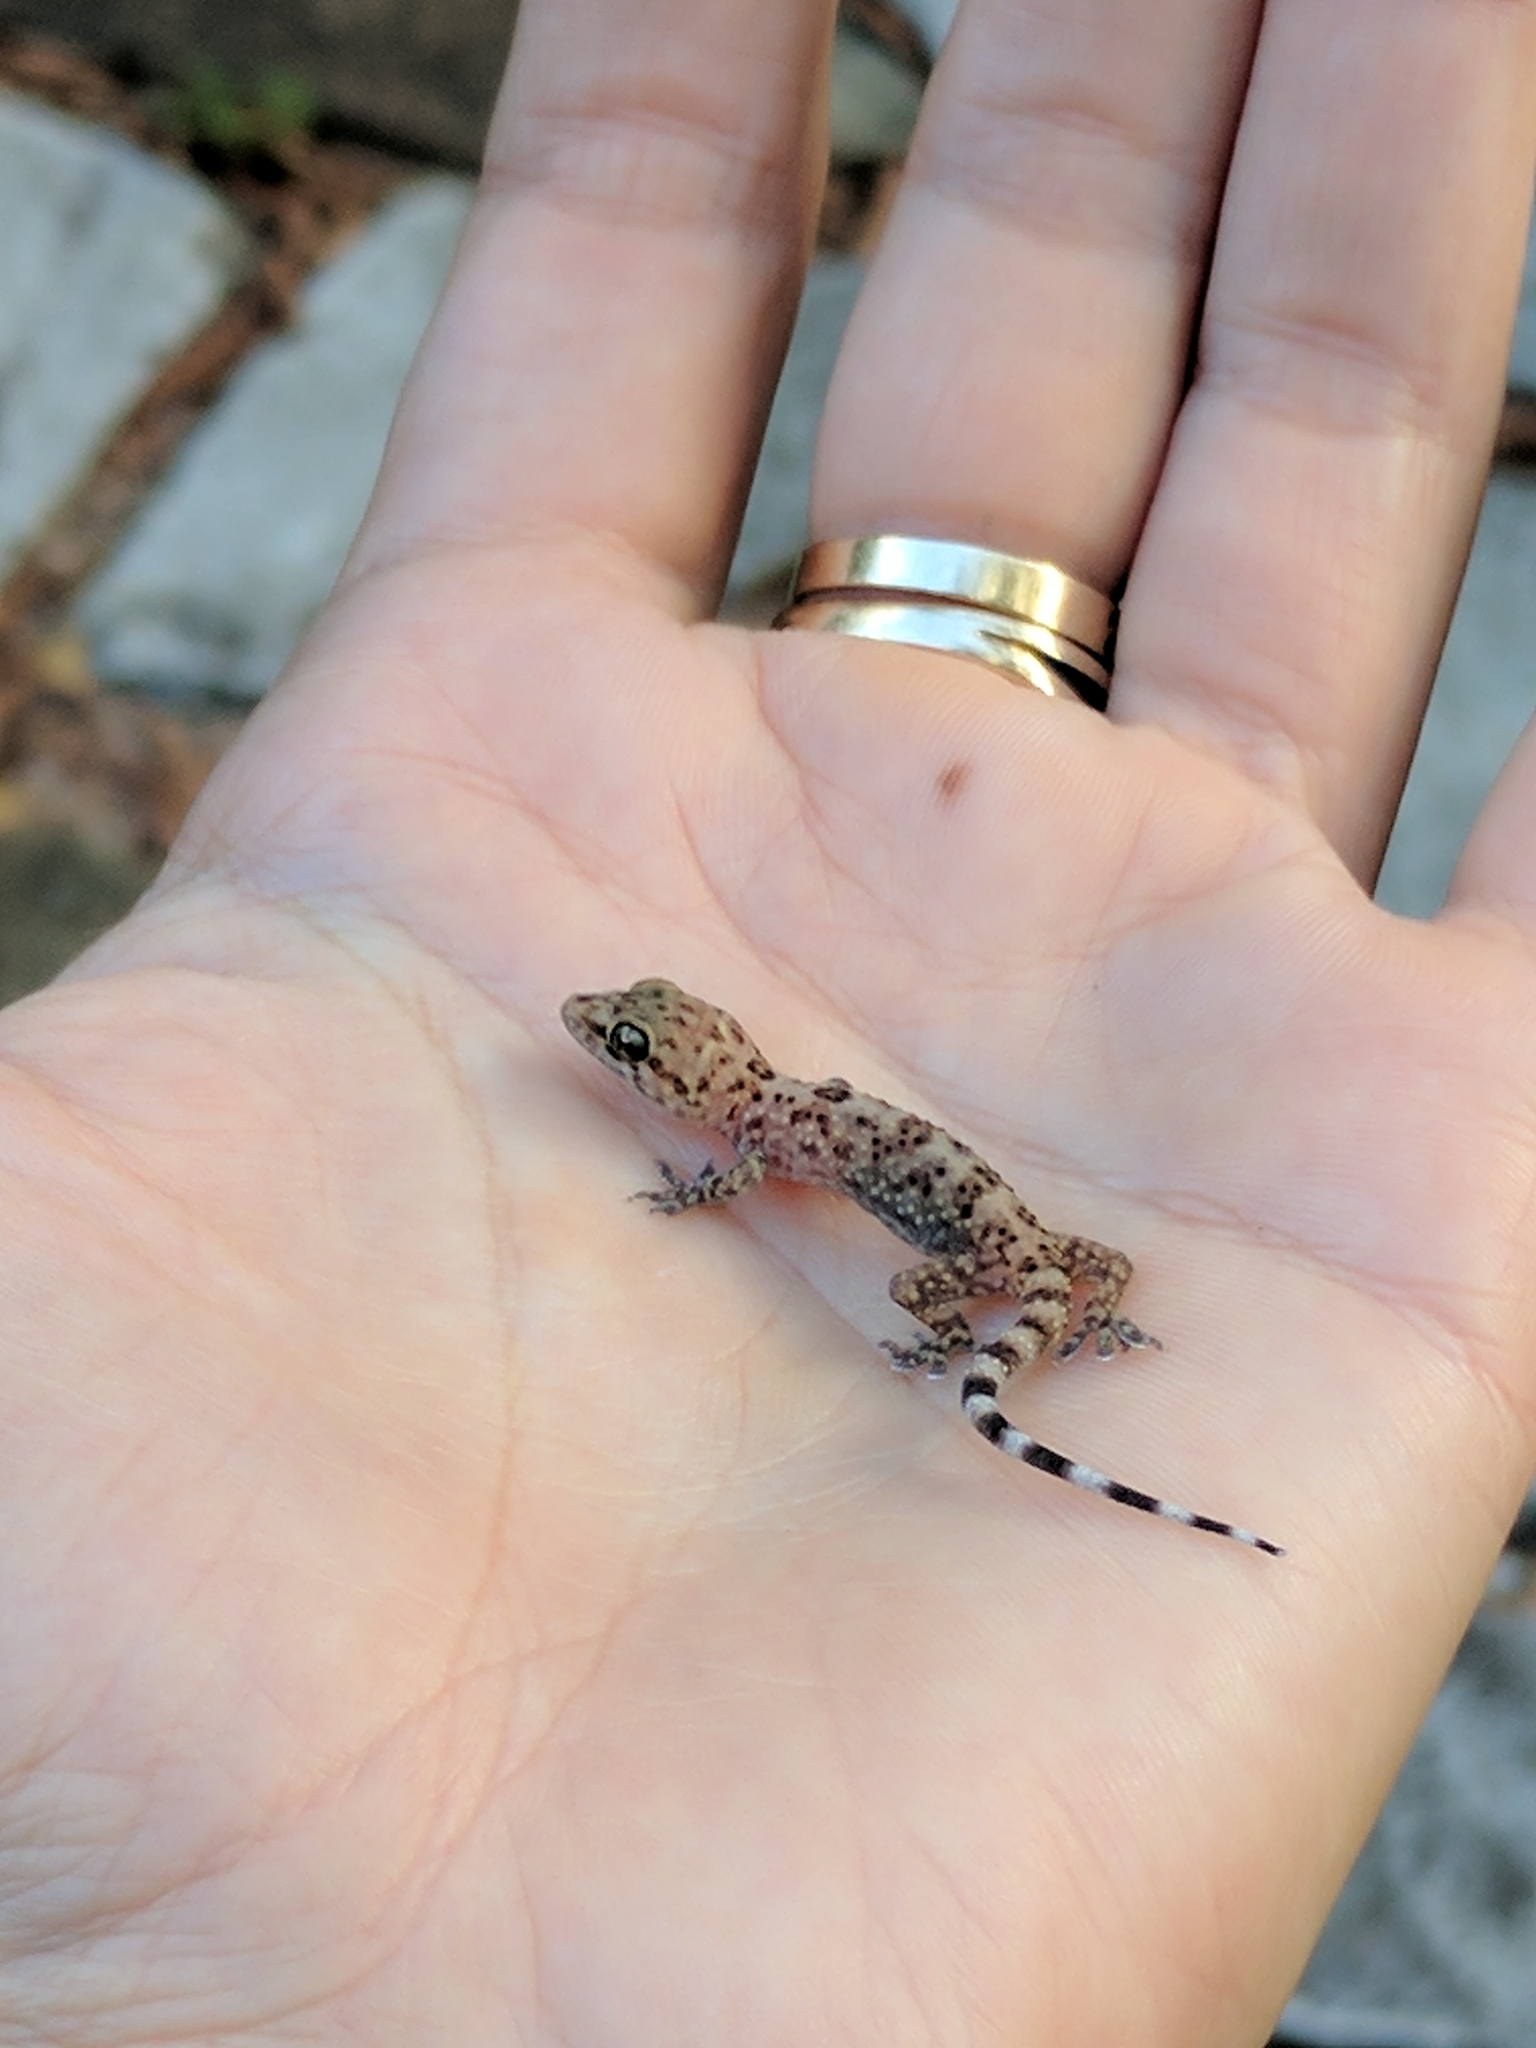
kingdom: Animalia
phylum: Chordata
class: Squamata
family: Gekkonidae
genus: Hemidactylus
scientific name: Hemidactylus turcicus
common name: Turkish gecko
